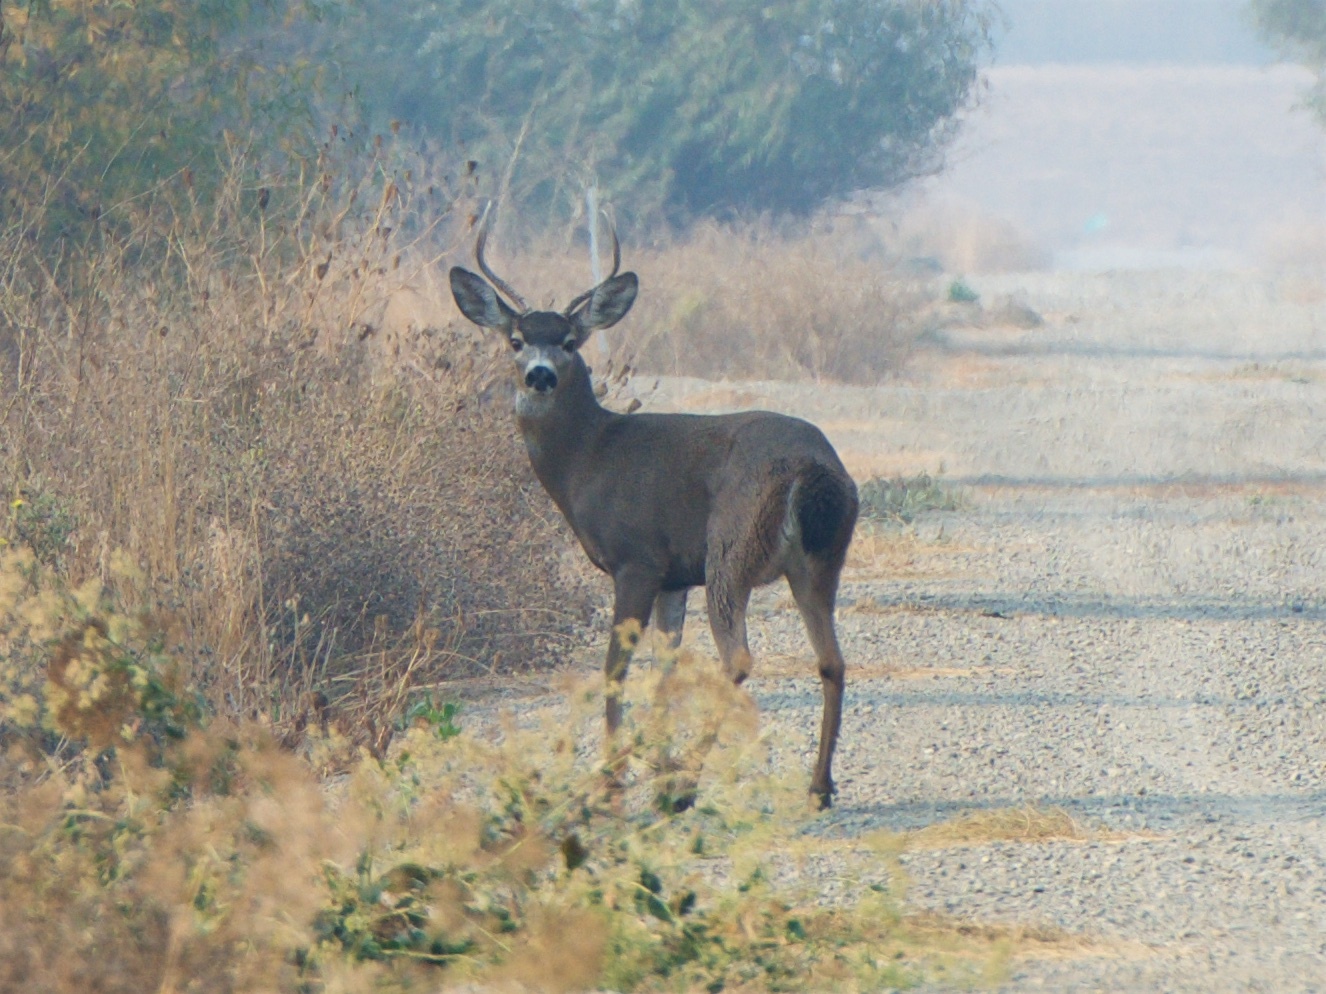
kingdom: Animalia
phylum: Chordata
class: Mammalia
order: Artiodactyla
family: Cervidae
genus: Odocoileus
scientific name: Odocoileus hemionus
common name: Mule deer
